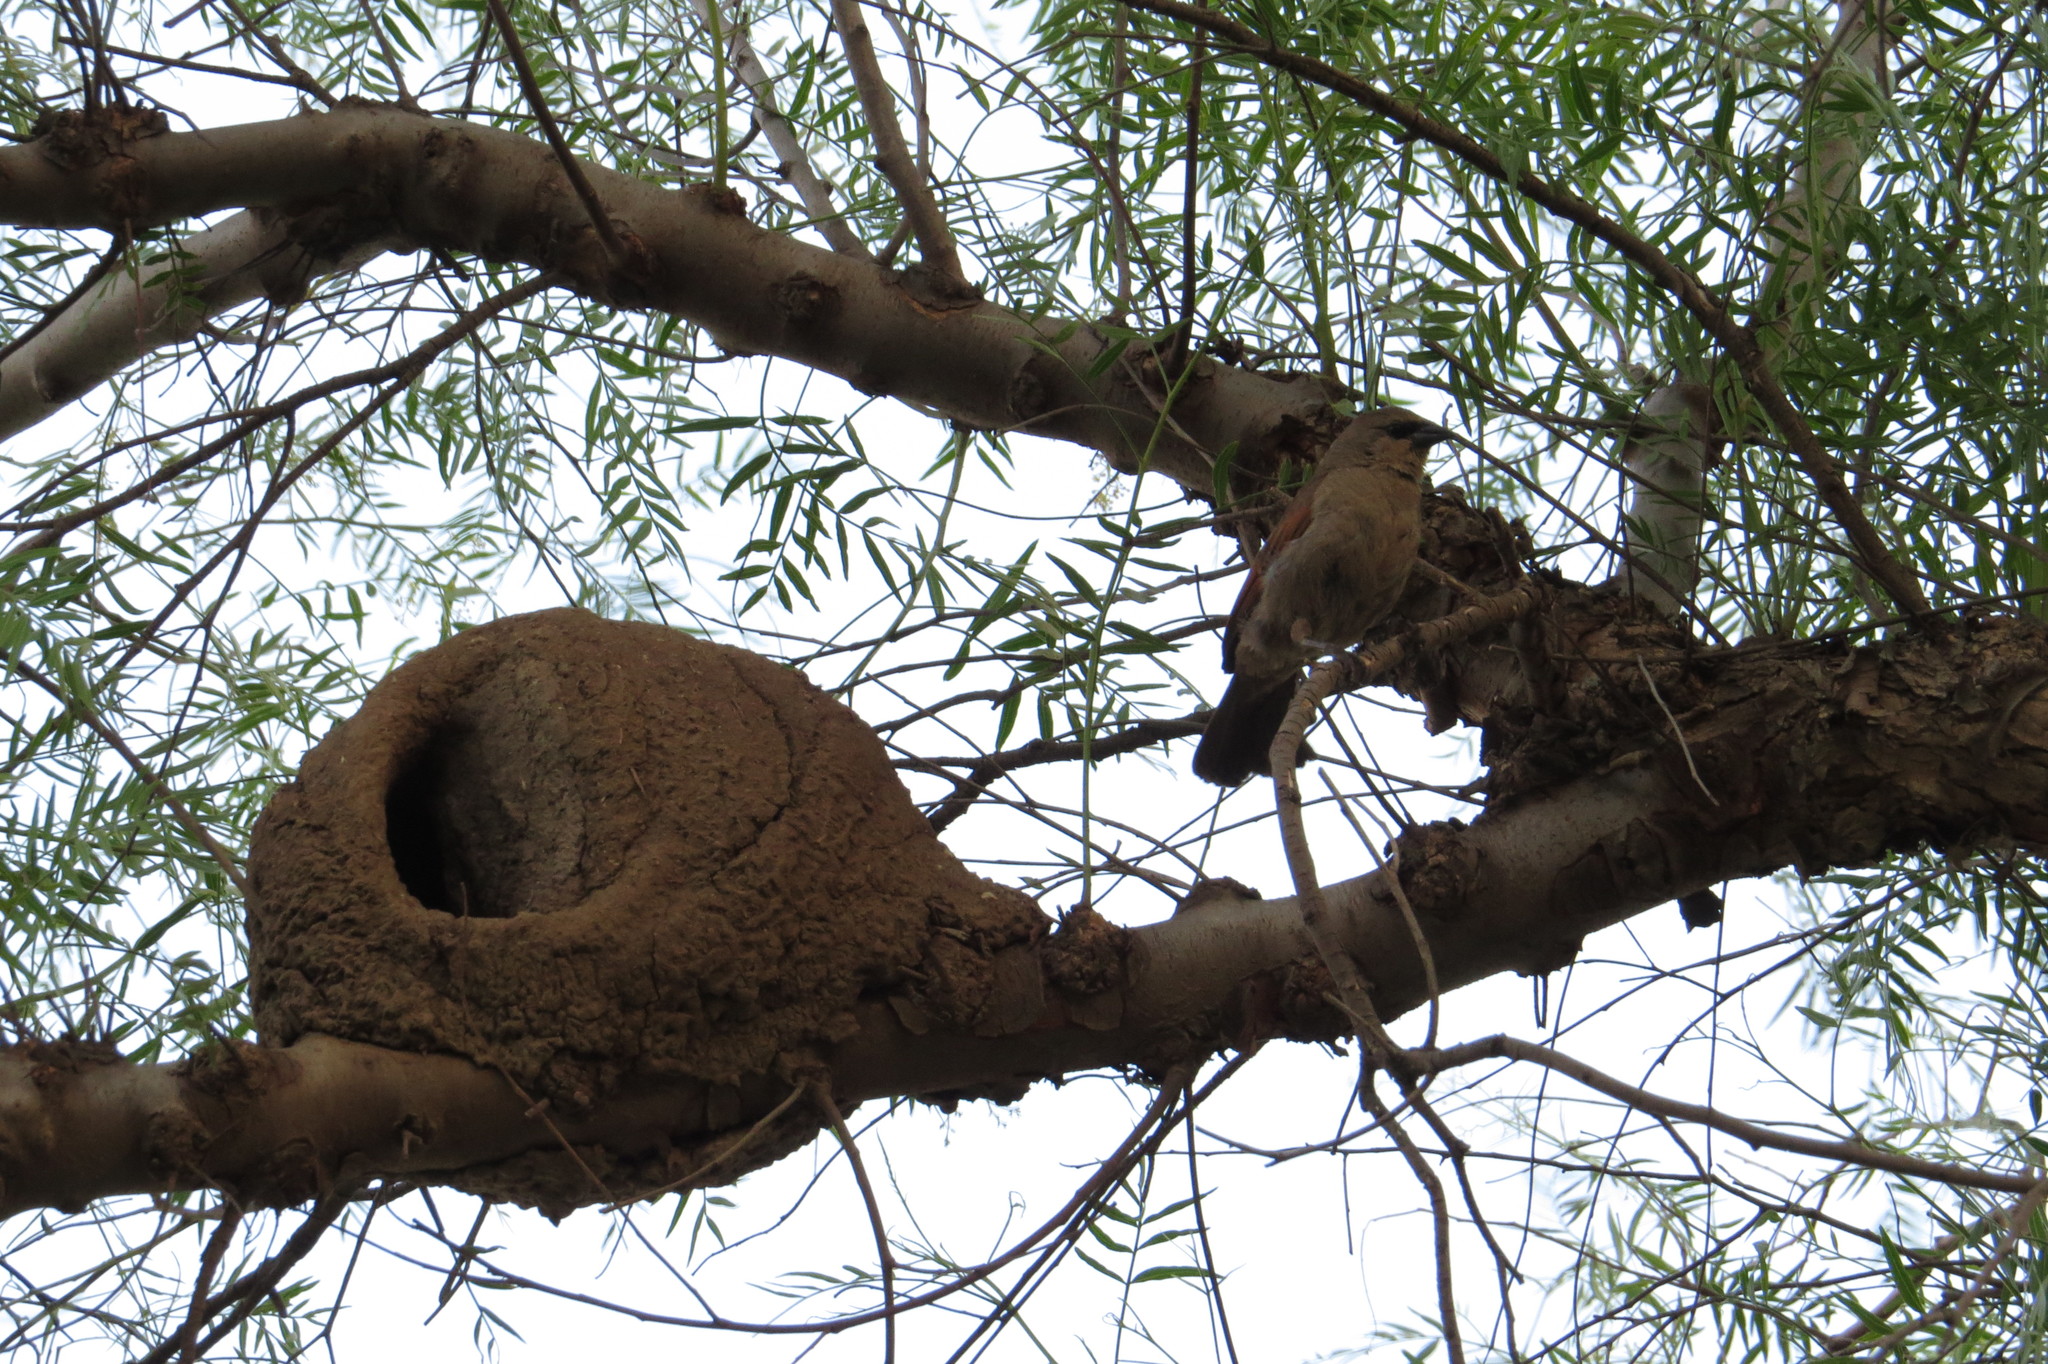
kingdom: Animalia
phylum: Chordata
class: Aves
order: Passeriformes
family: Icteridae
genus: Agelaioides
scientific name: Agelaioides badius
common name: Baywing
